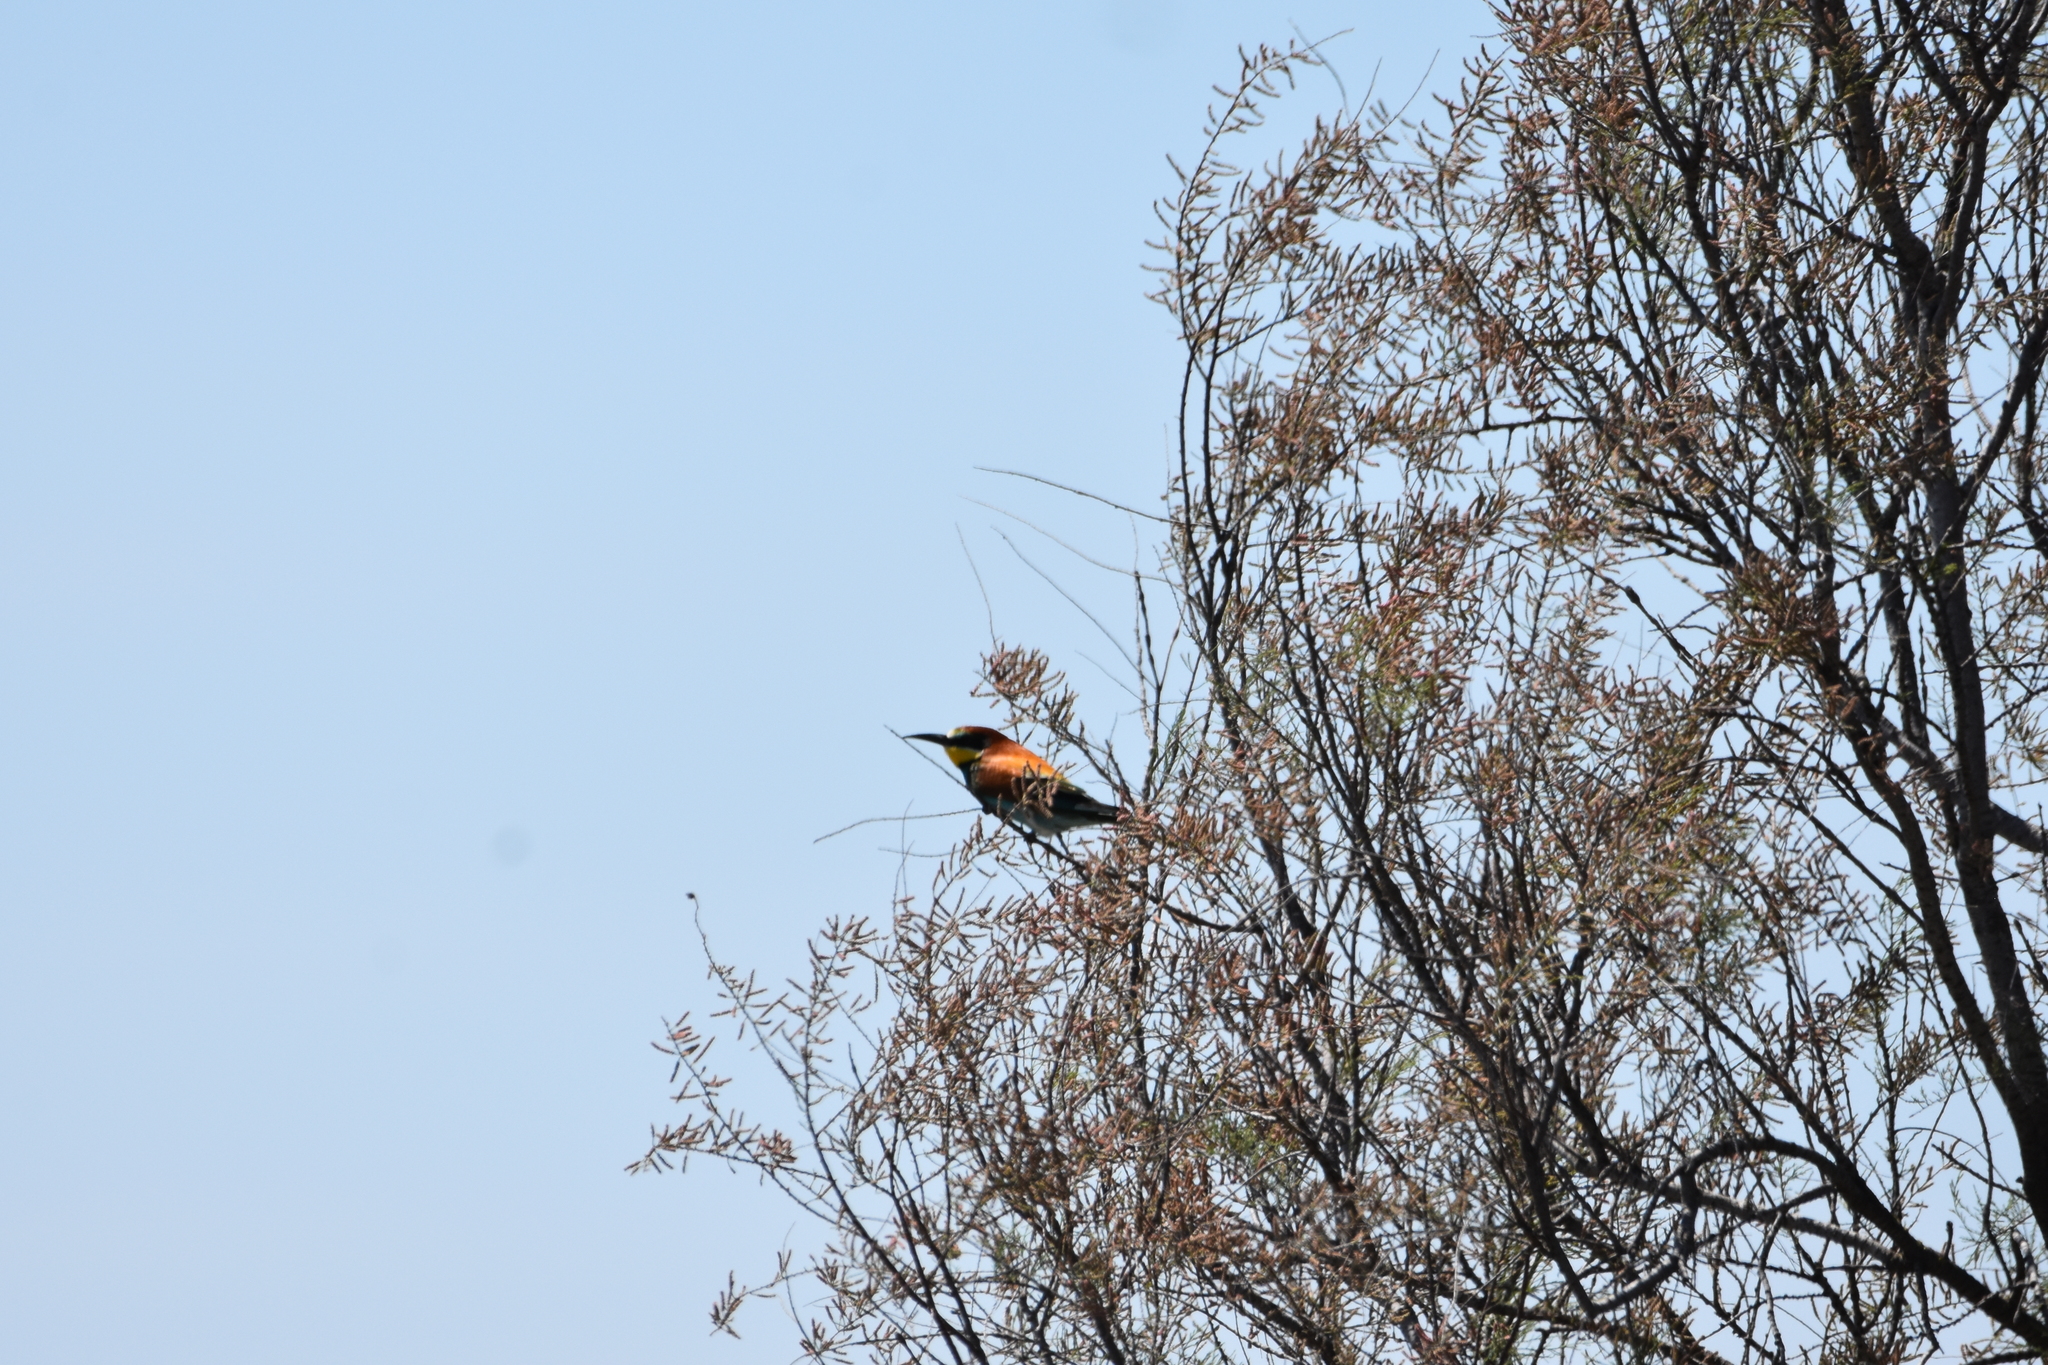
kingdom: Animalia
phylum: Chordata
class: Aves
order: Coraciiformes
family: Meropidae
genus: Merops
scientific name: Merops apiaster
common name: European bee-eater
